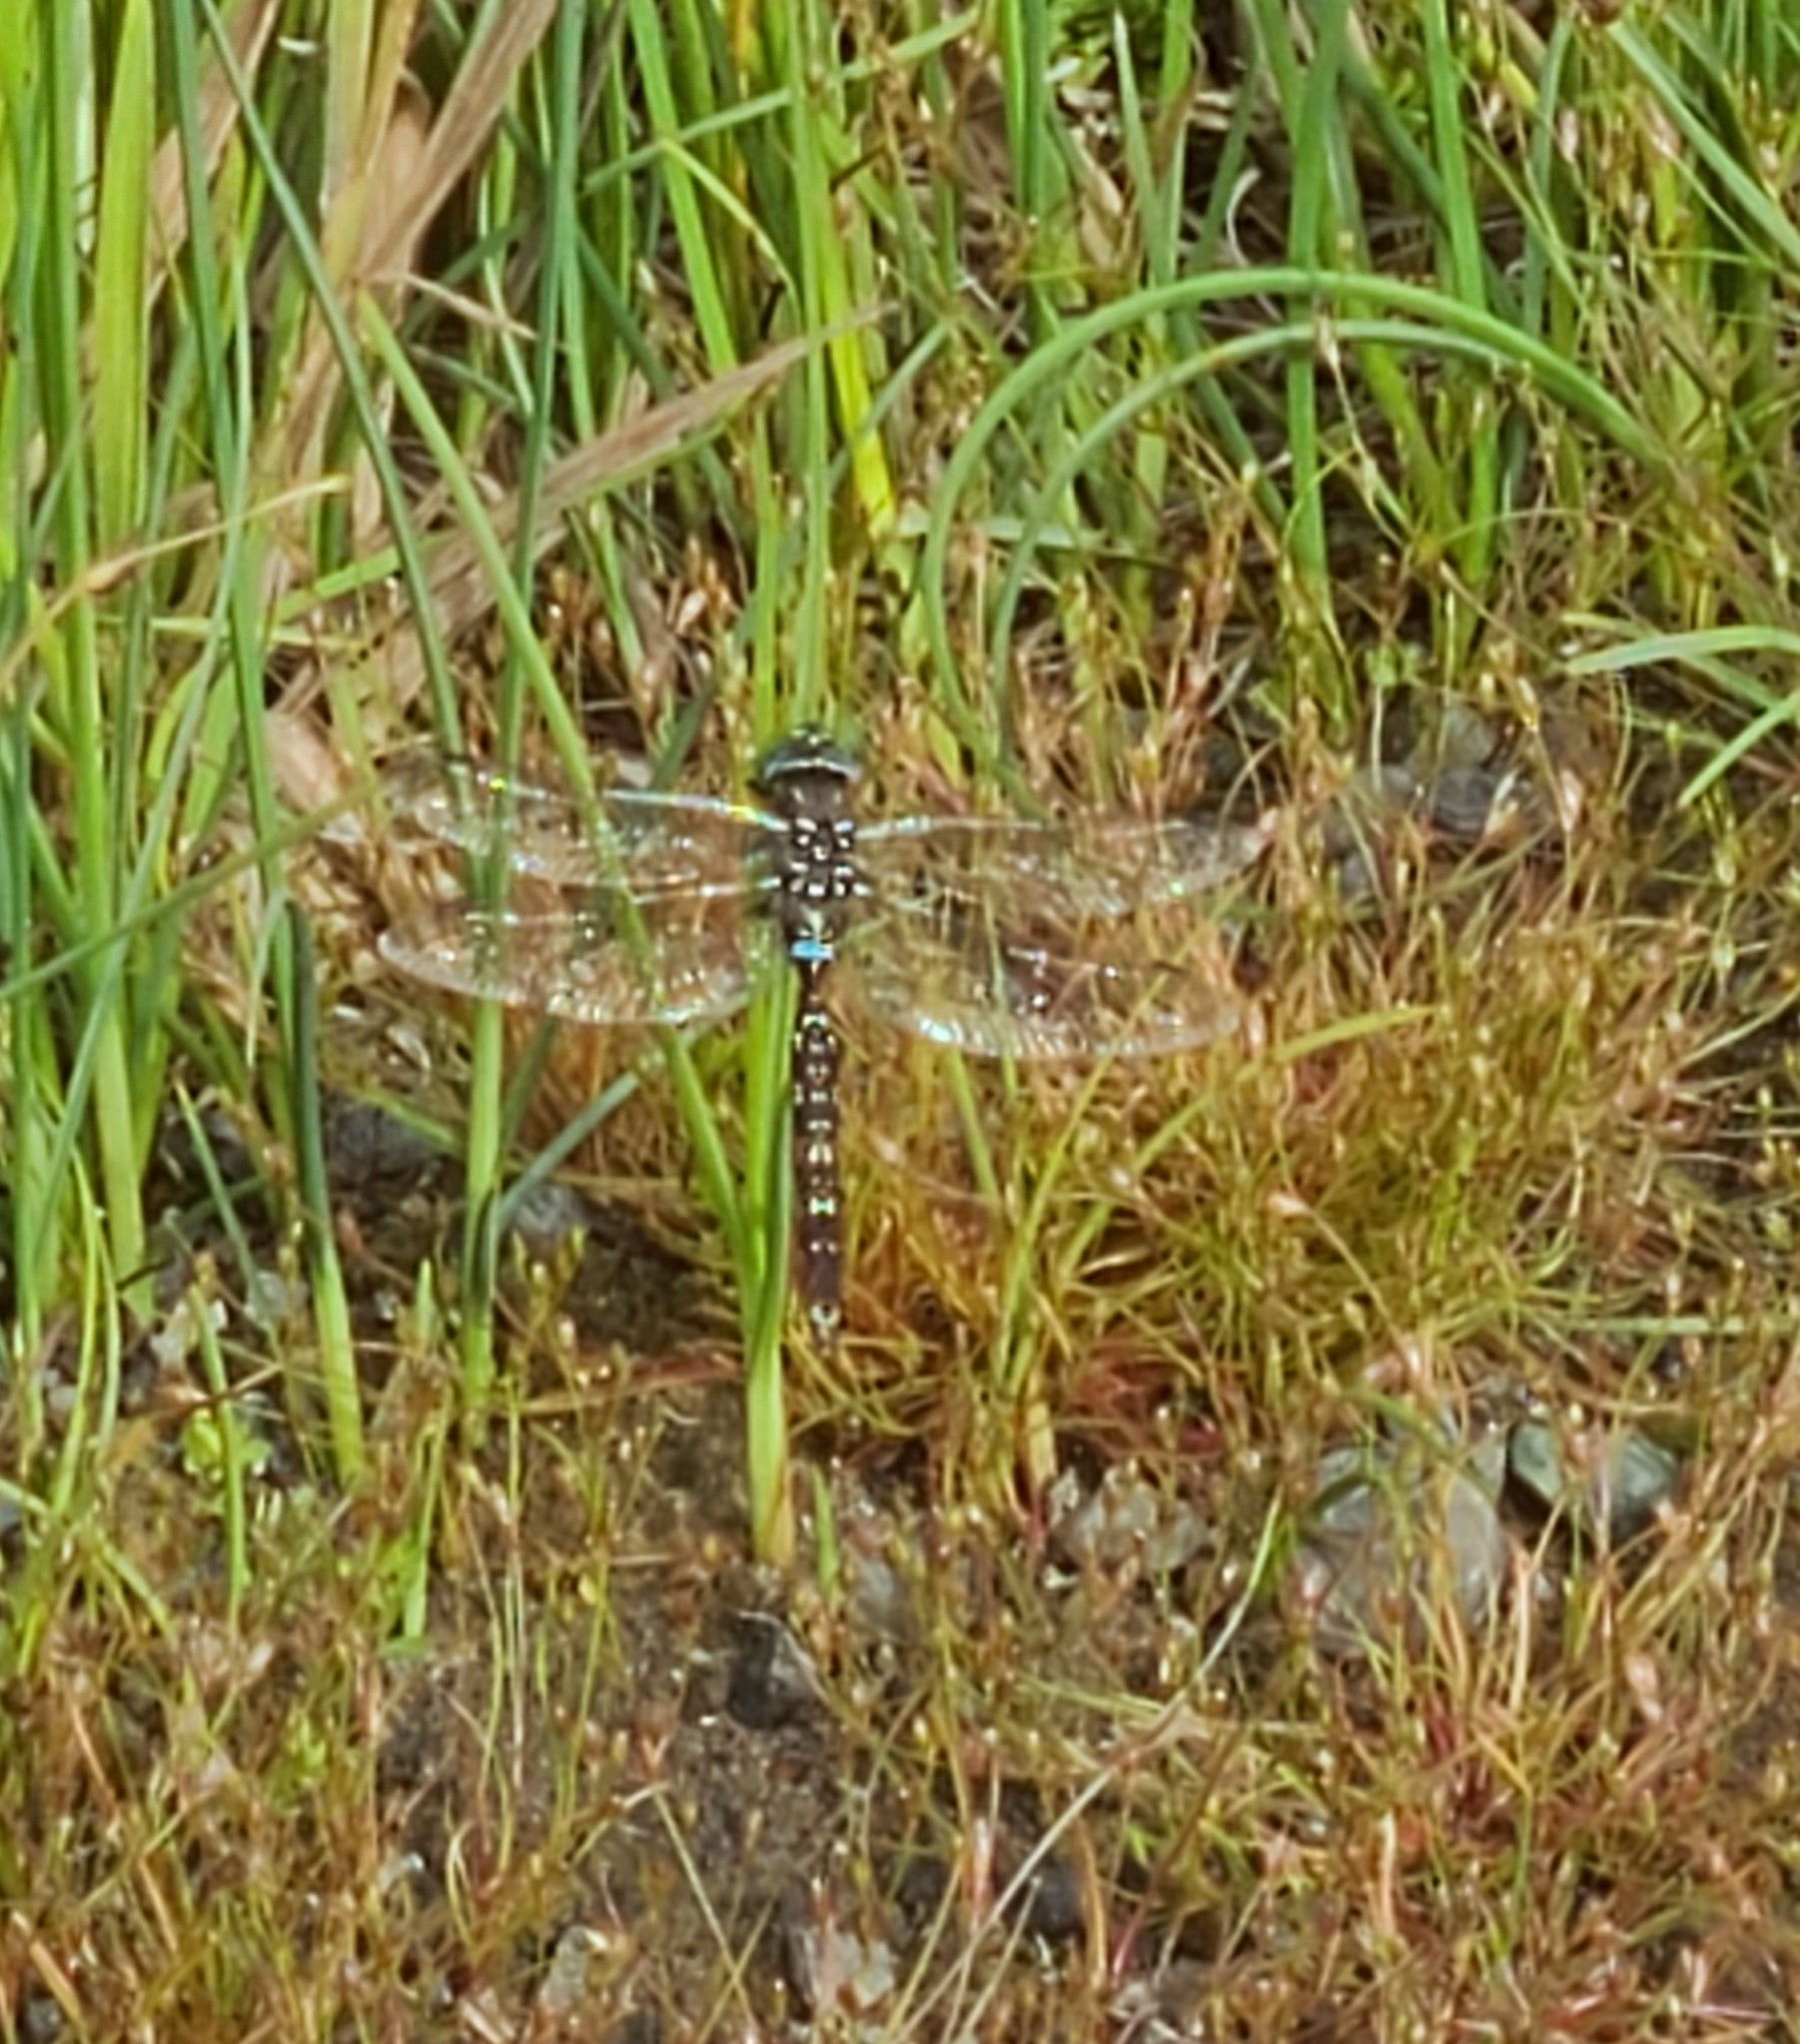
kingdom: Animalia
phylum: Arthropoda
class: Insecta
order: Odonata
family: Aeshnidae
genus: Aeshna
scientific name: Aeshna brevistyla
